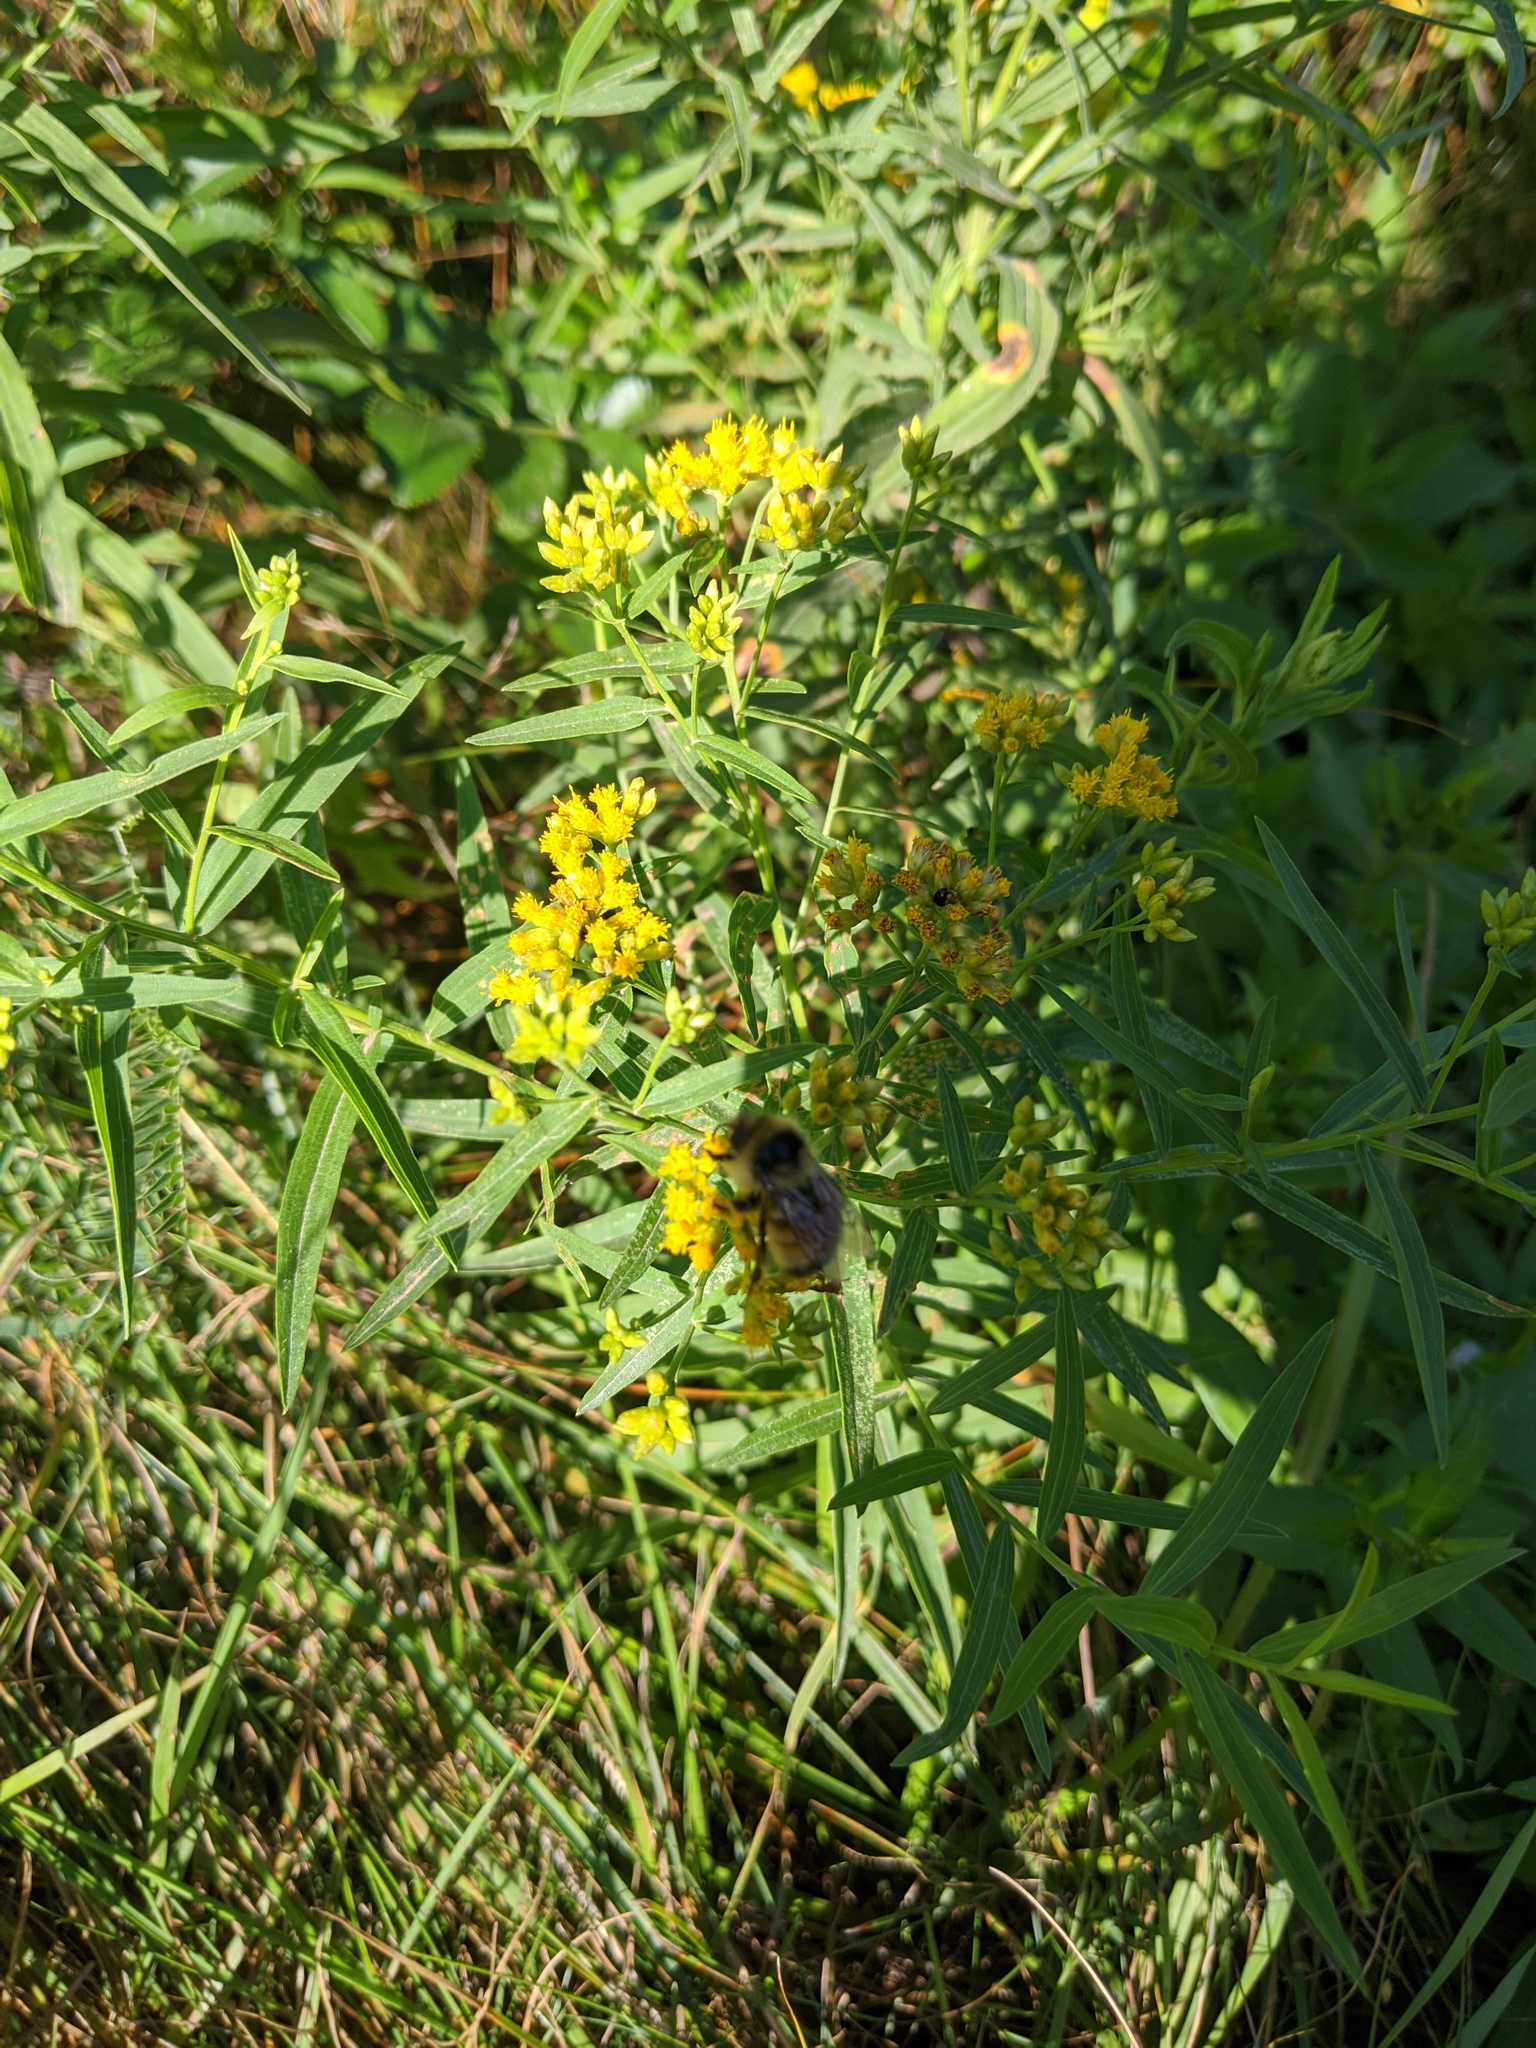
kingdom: Animalia
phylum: Arthropoda
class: Insecta
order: Hymenoptera
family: Apidae
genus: Bombus
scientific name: Bombus ternarius
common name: Tri-colored bumble bee
